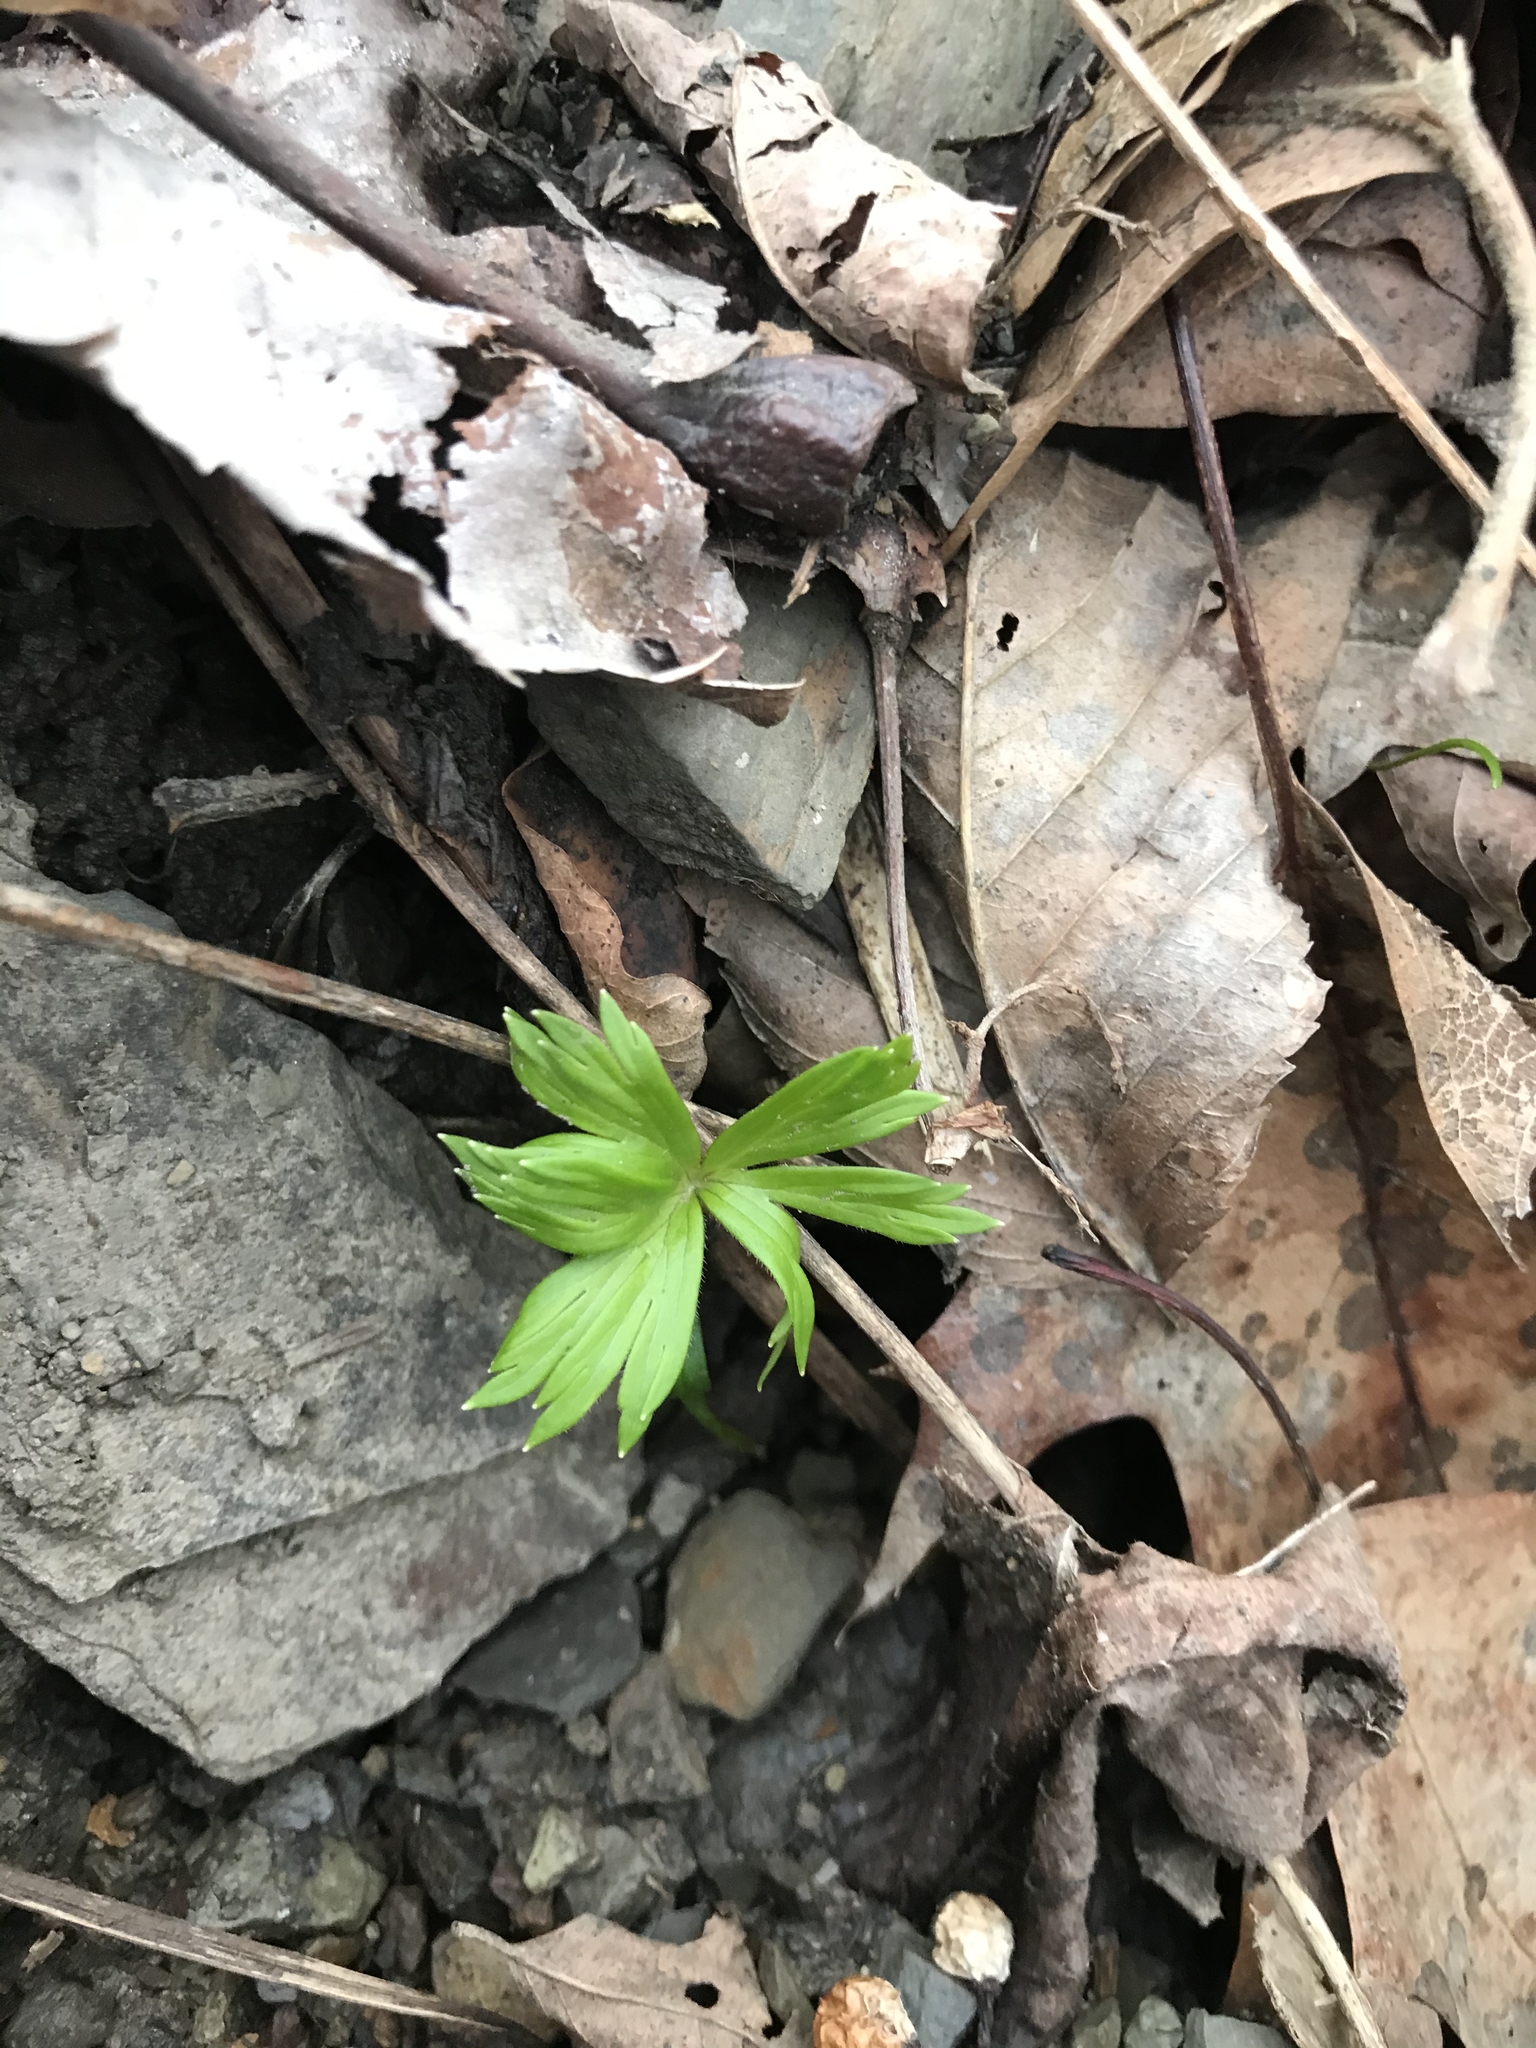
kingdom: Plantae
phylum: Tracheophyta
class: Magnoliopsida
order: Ranunculales
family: Ranunculaceae
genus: Delphinium
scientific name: Delphinium tricorne
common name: Dwarf larkspur
